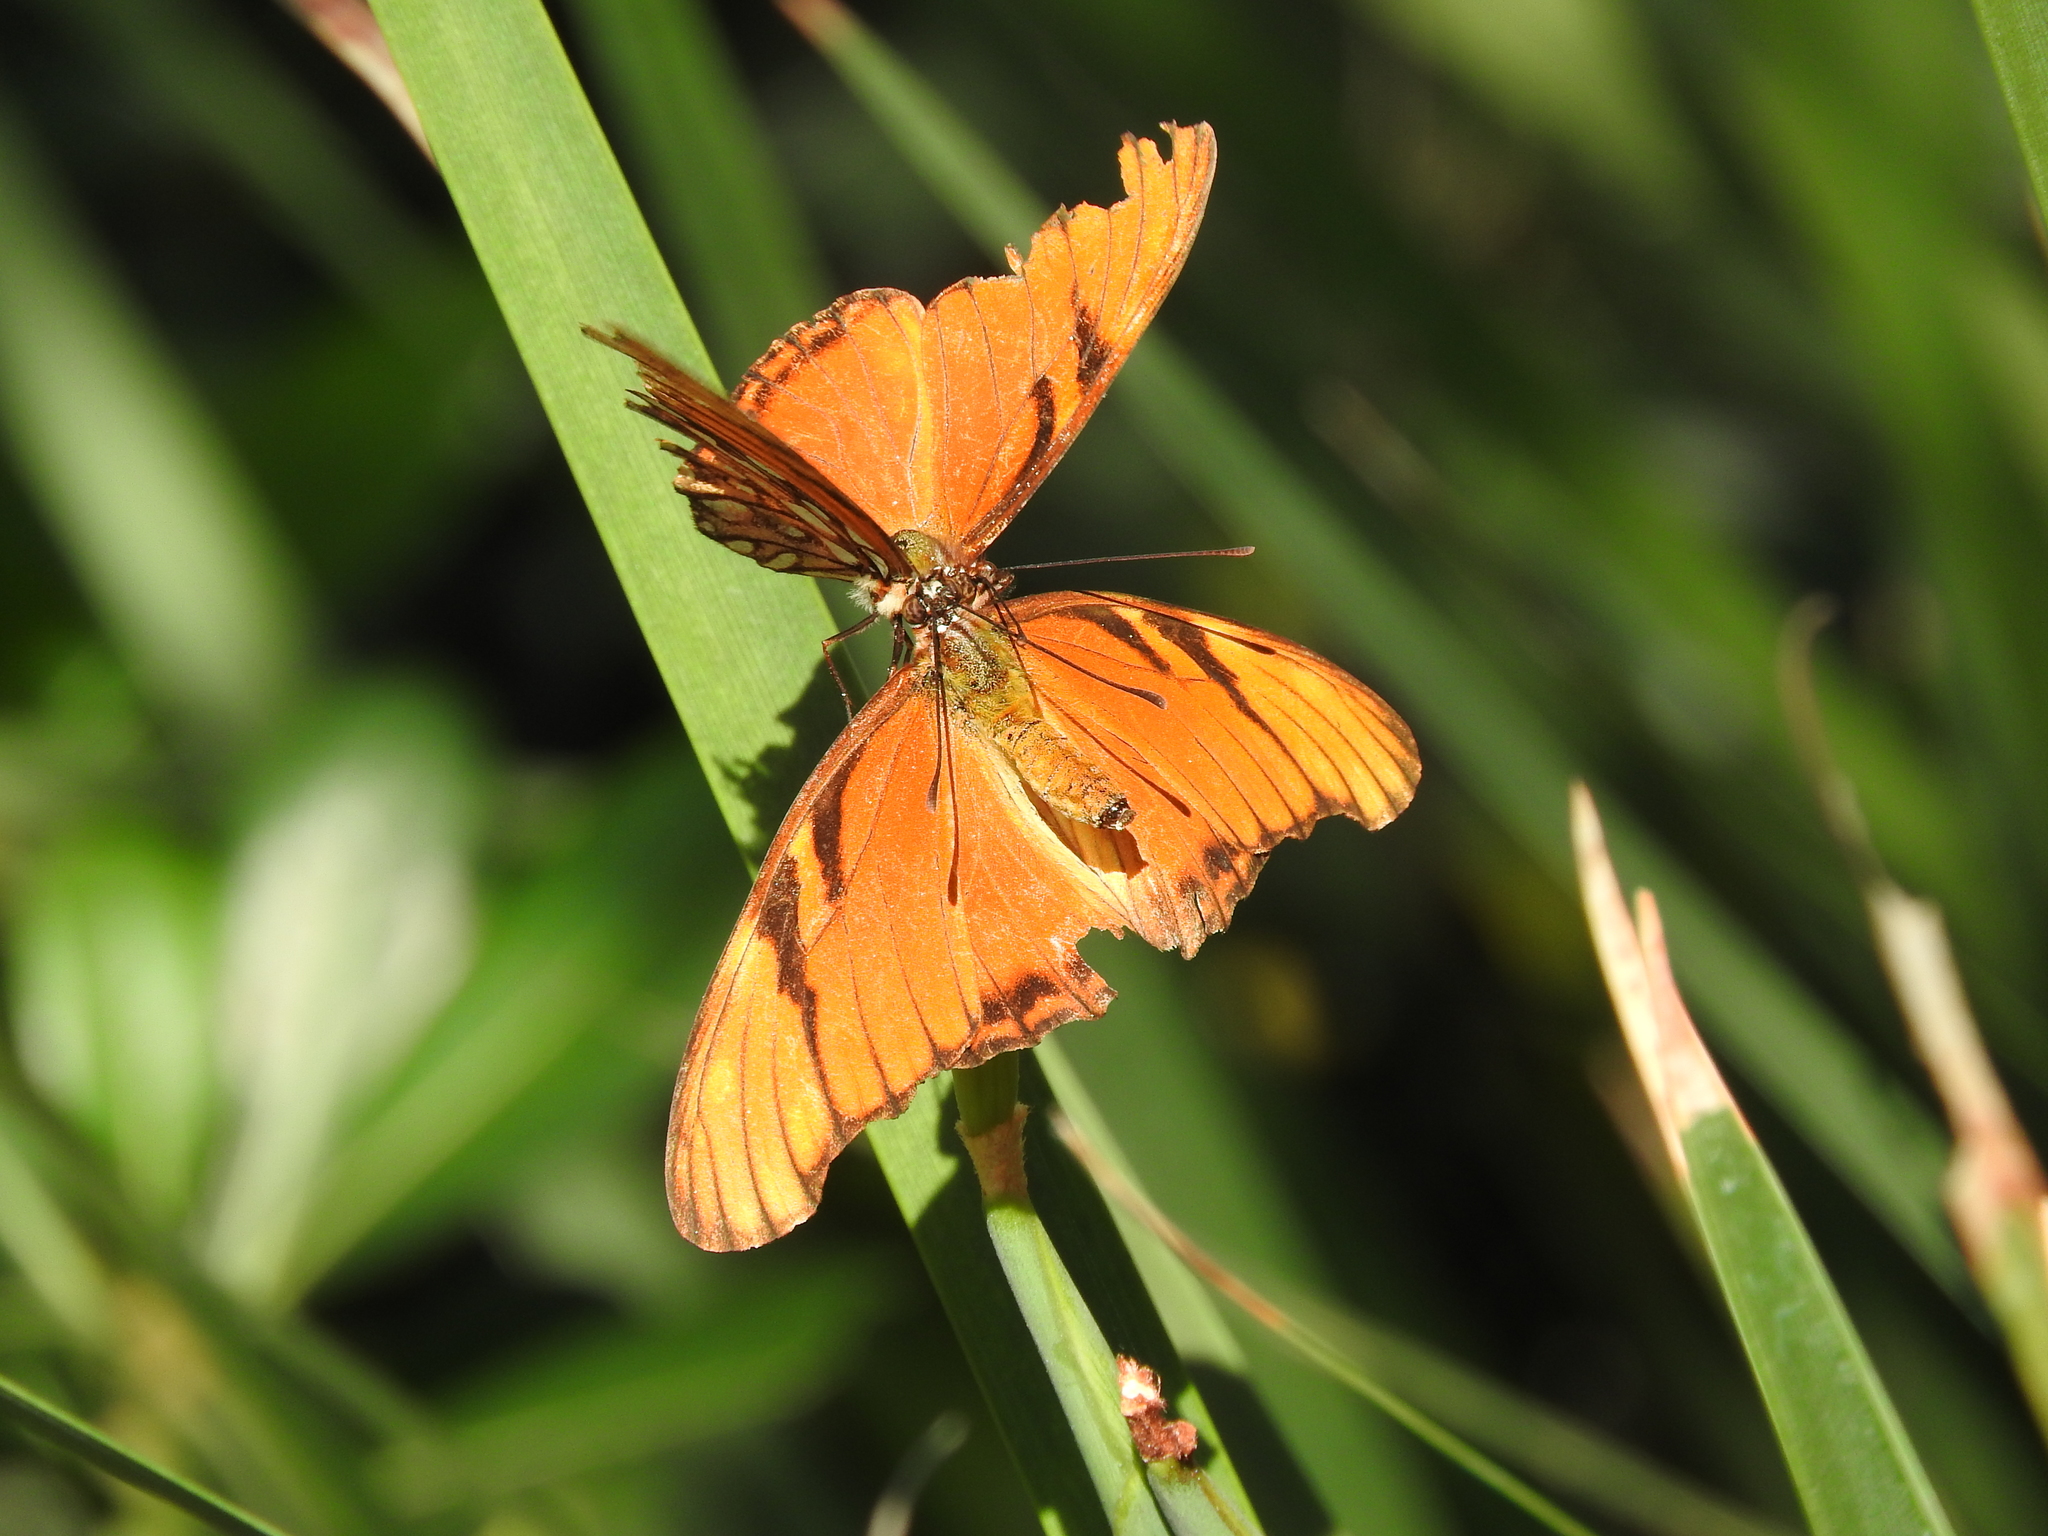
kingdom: Animalia
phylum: Arthropoda
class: Insecta
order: Lepidoptera
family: Nymphalidae
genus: Dione
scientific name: Dione juno
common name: Juno silverspot
